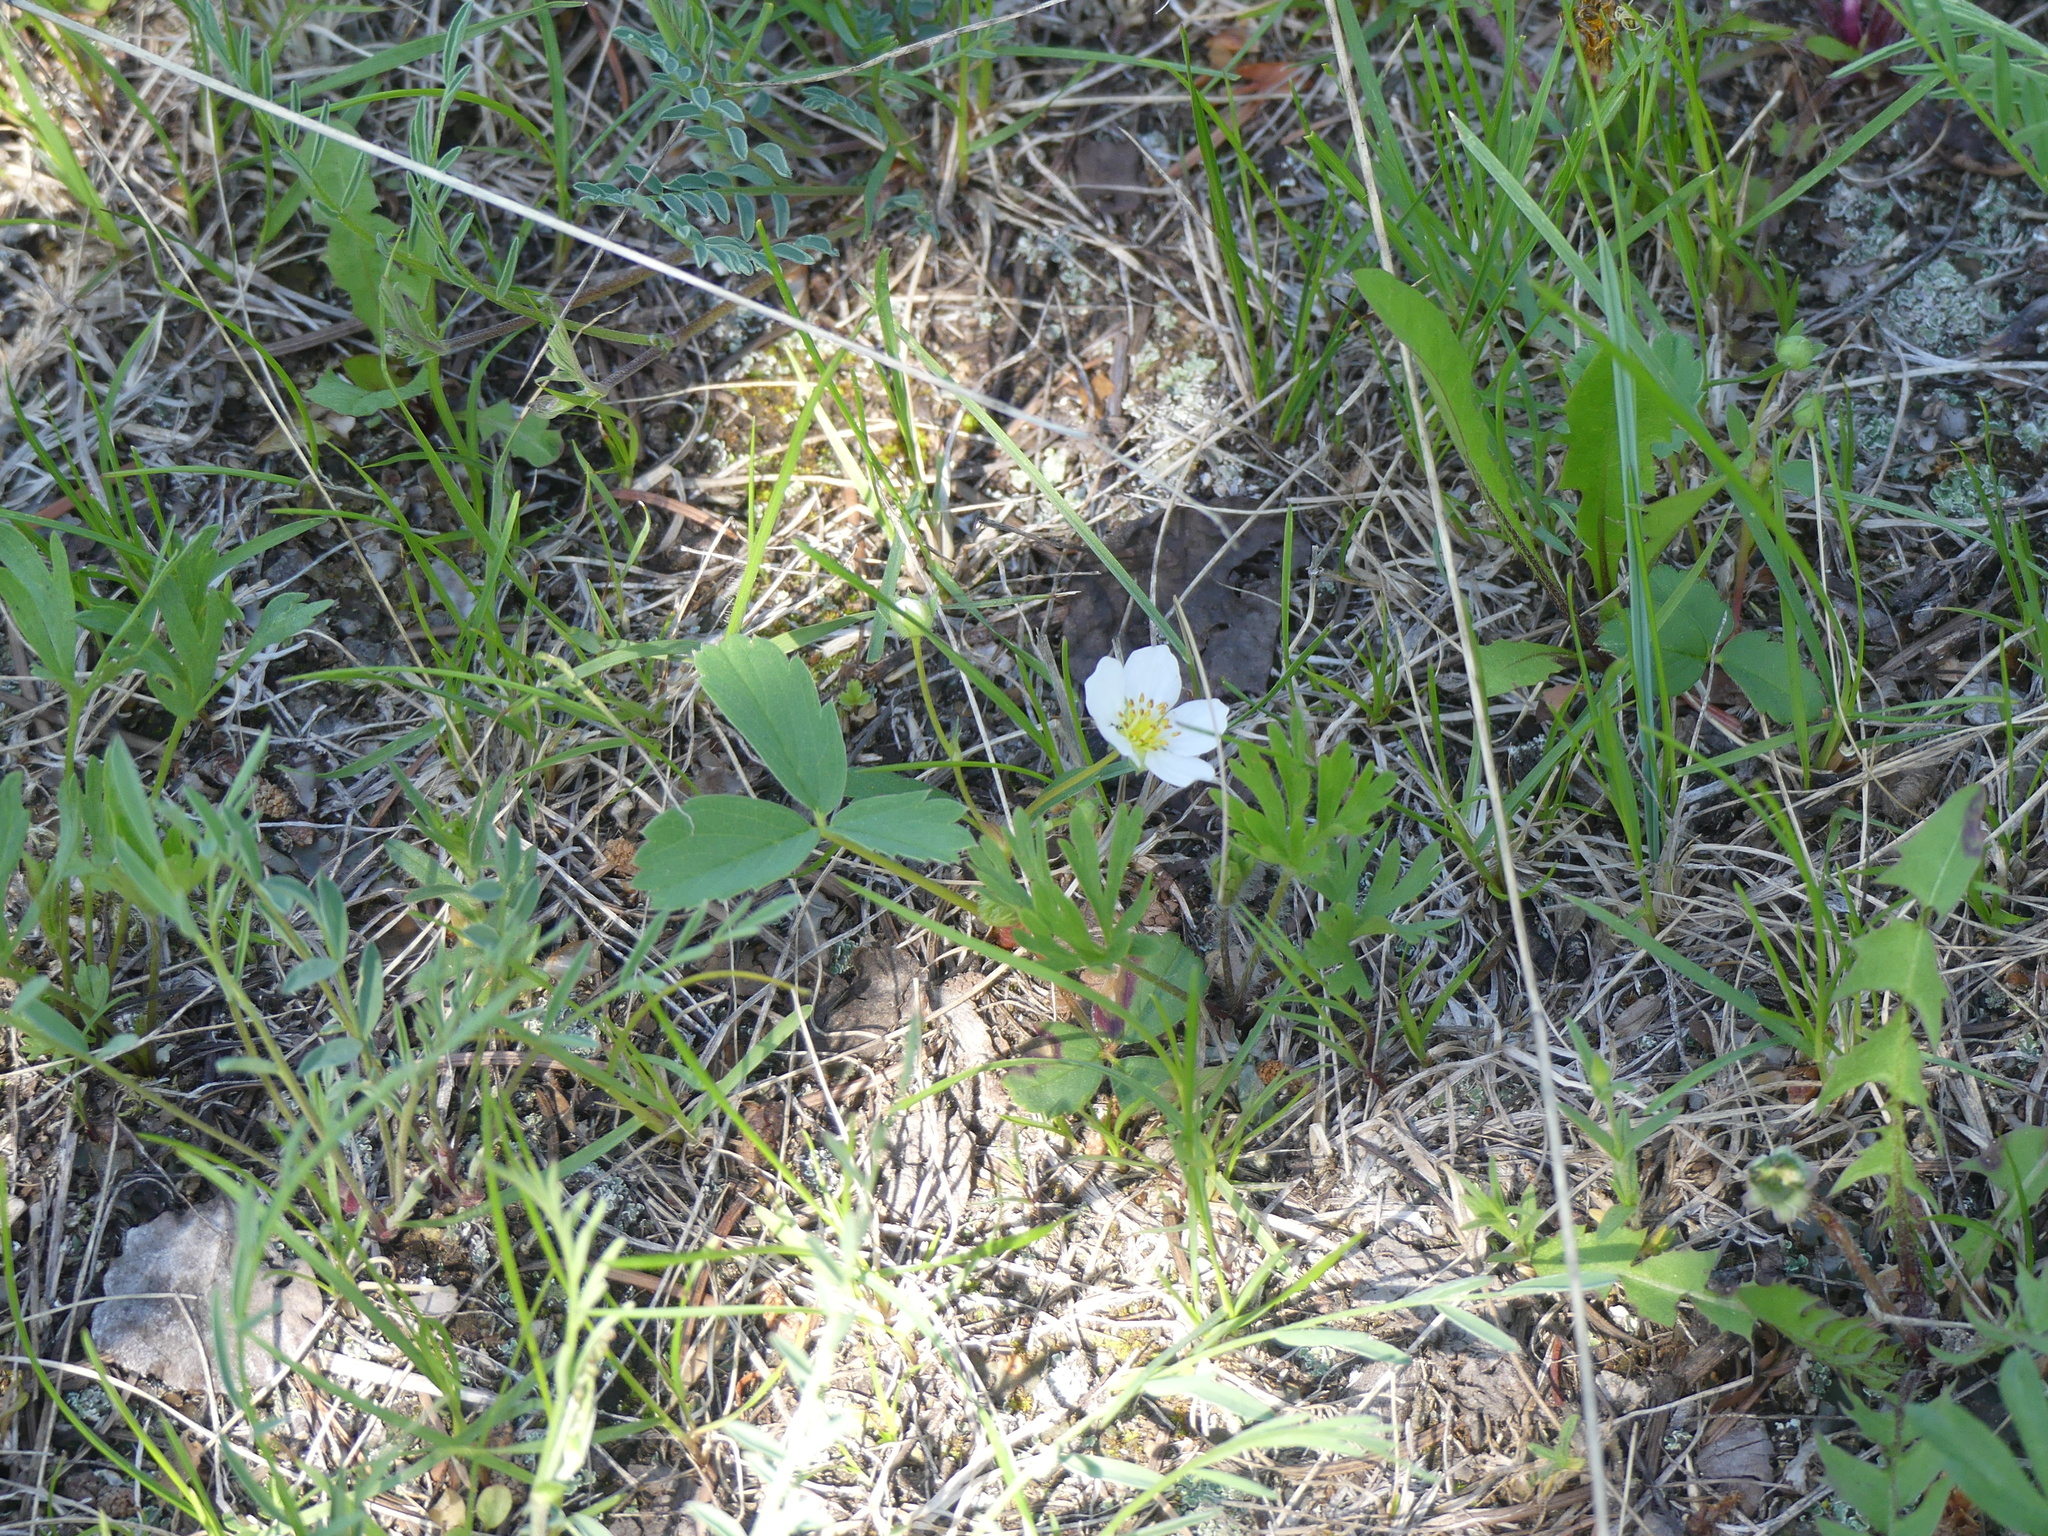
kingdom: Plantae
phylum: Tracheophyta
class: Magnoliopsida
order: Rosales
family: Rosaceae
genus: Fragaria
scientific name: Fragaria virginiana
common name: Thickleaved wild strawberry
